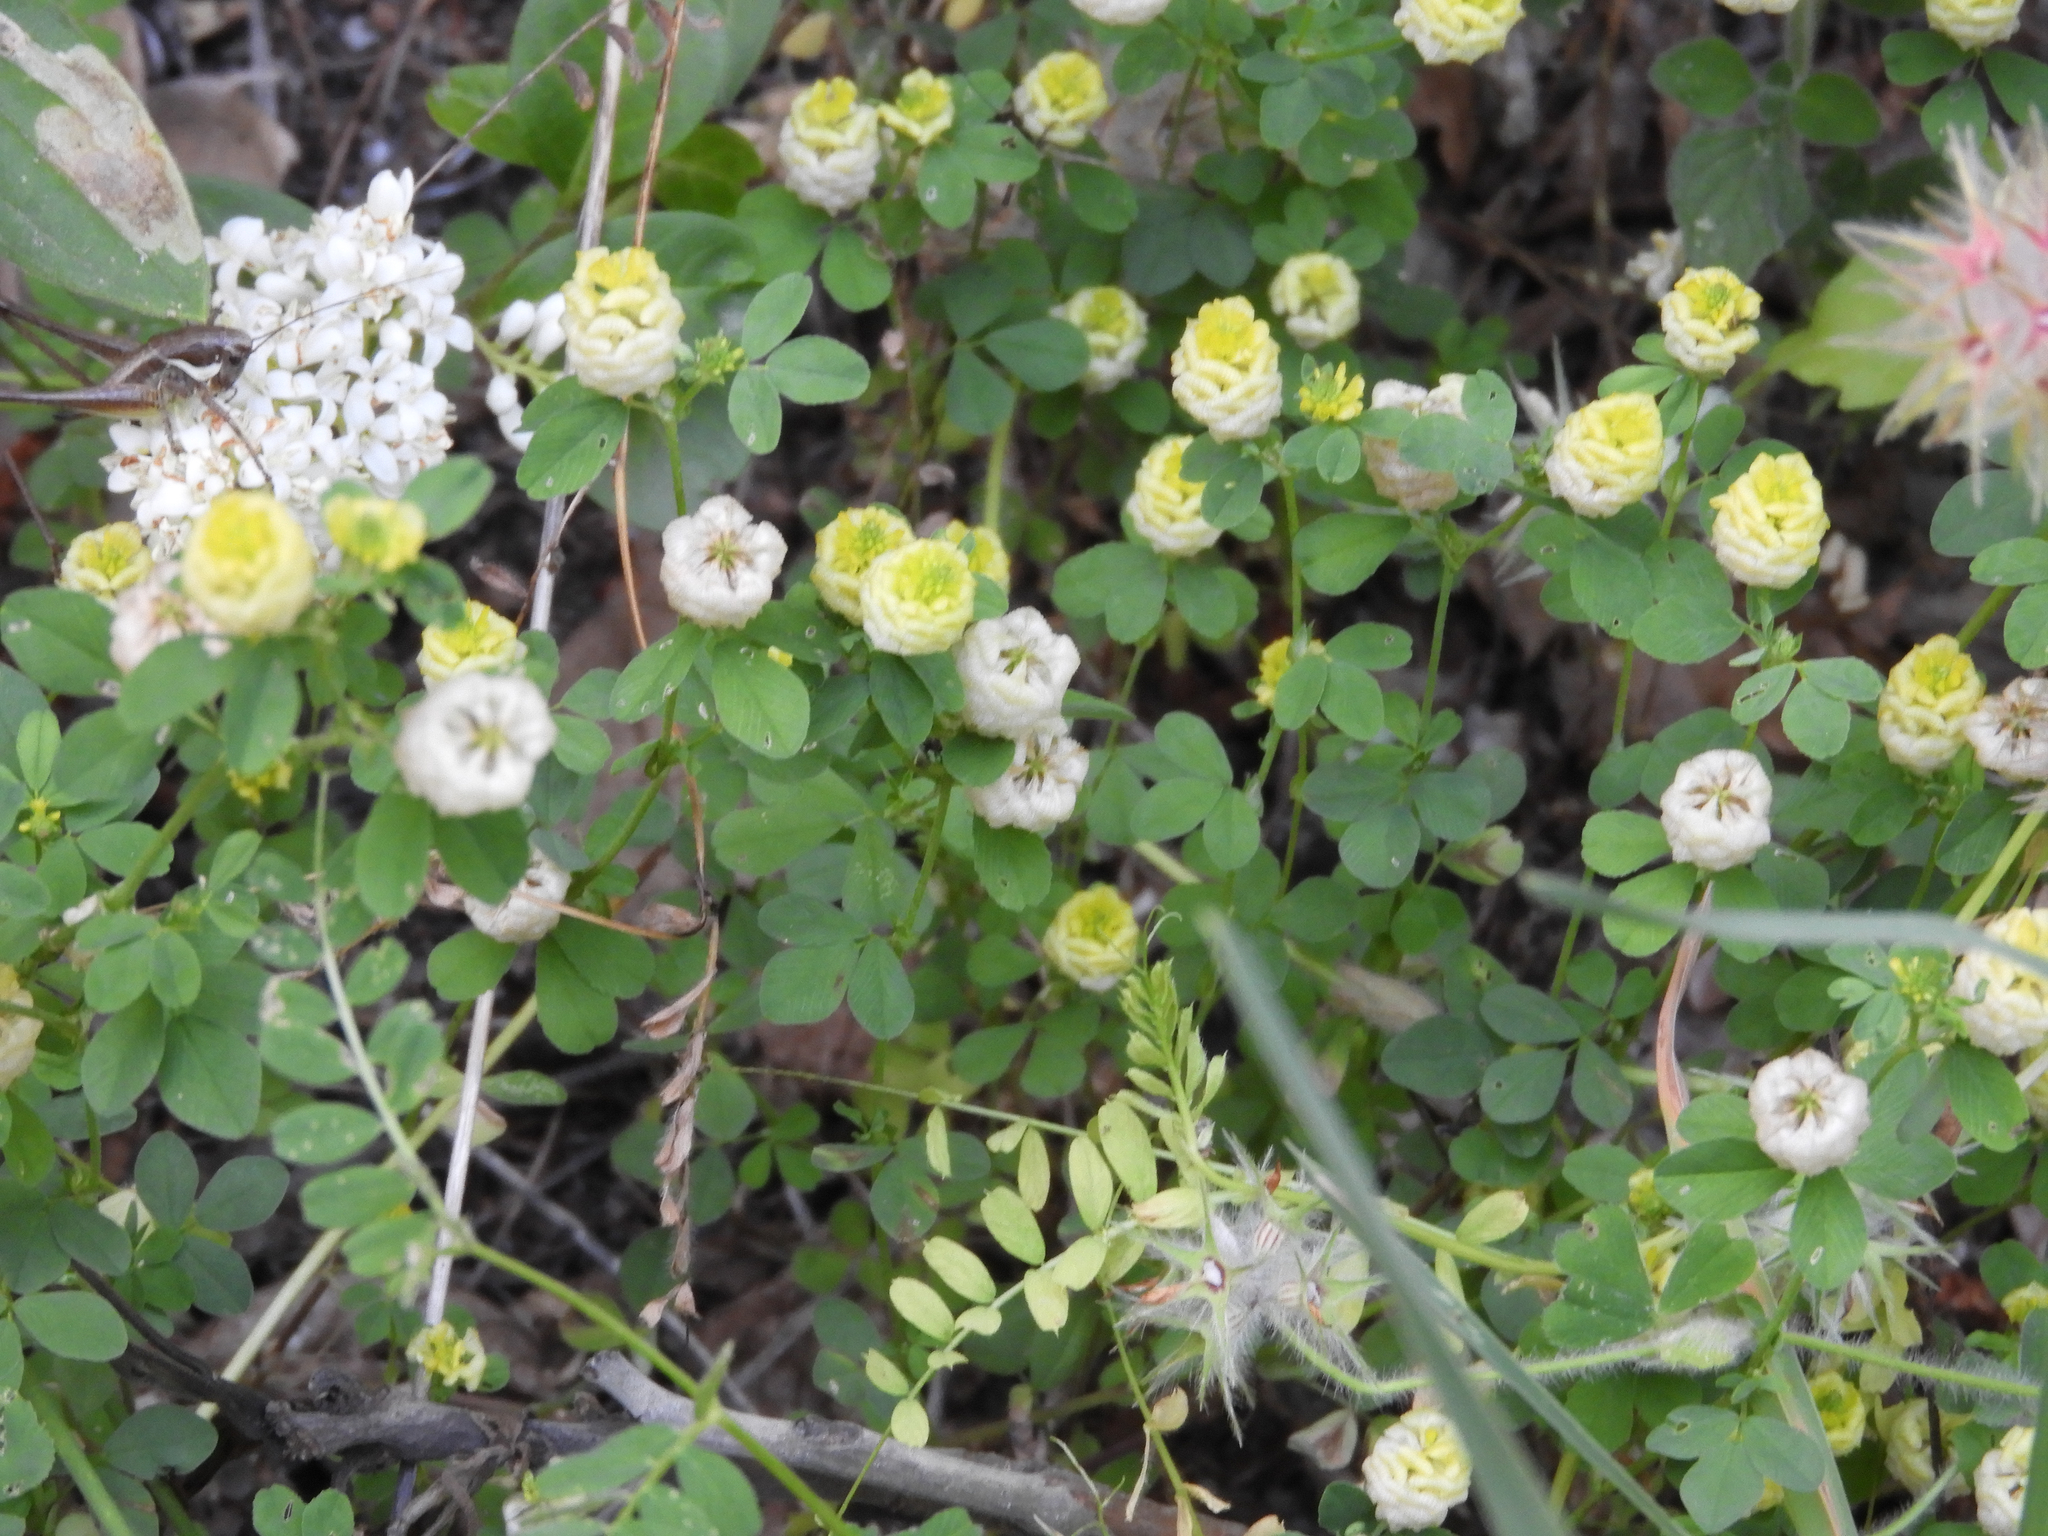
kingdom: Plantae
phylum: Tracheophyta
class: Magnoliopsida
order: Fabales
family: Fabaceae
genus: Trifolium
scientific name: Trifolium campestre
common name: Field clover
